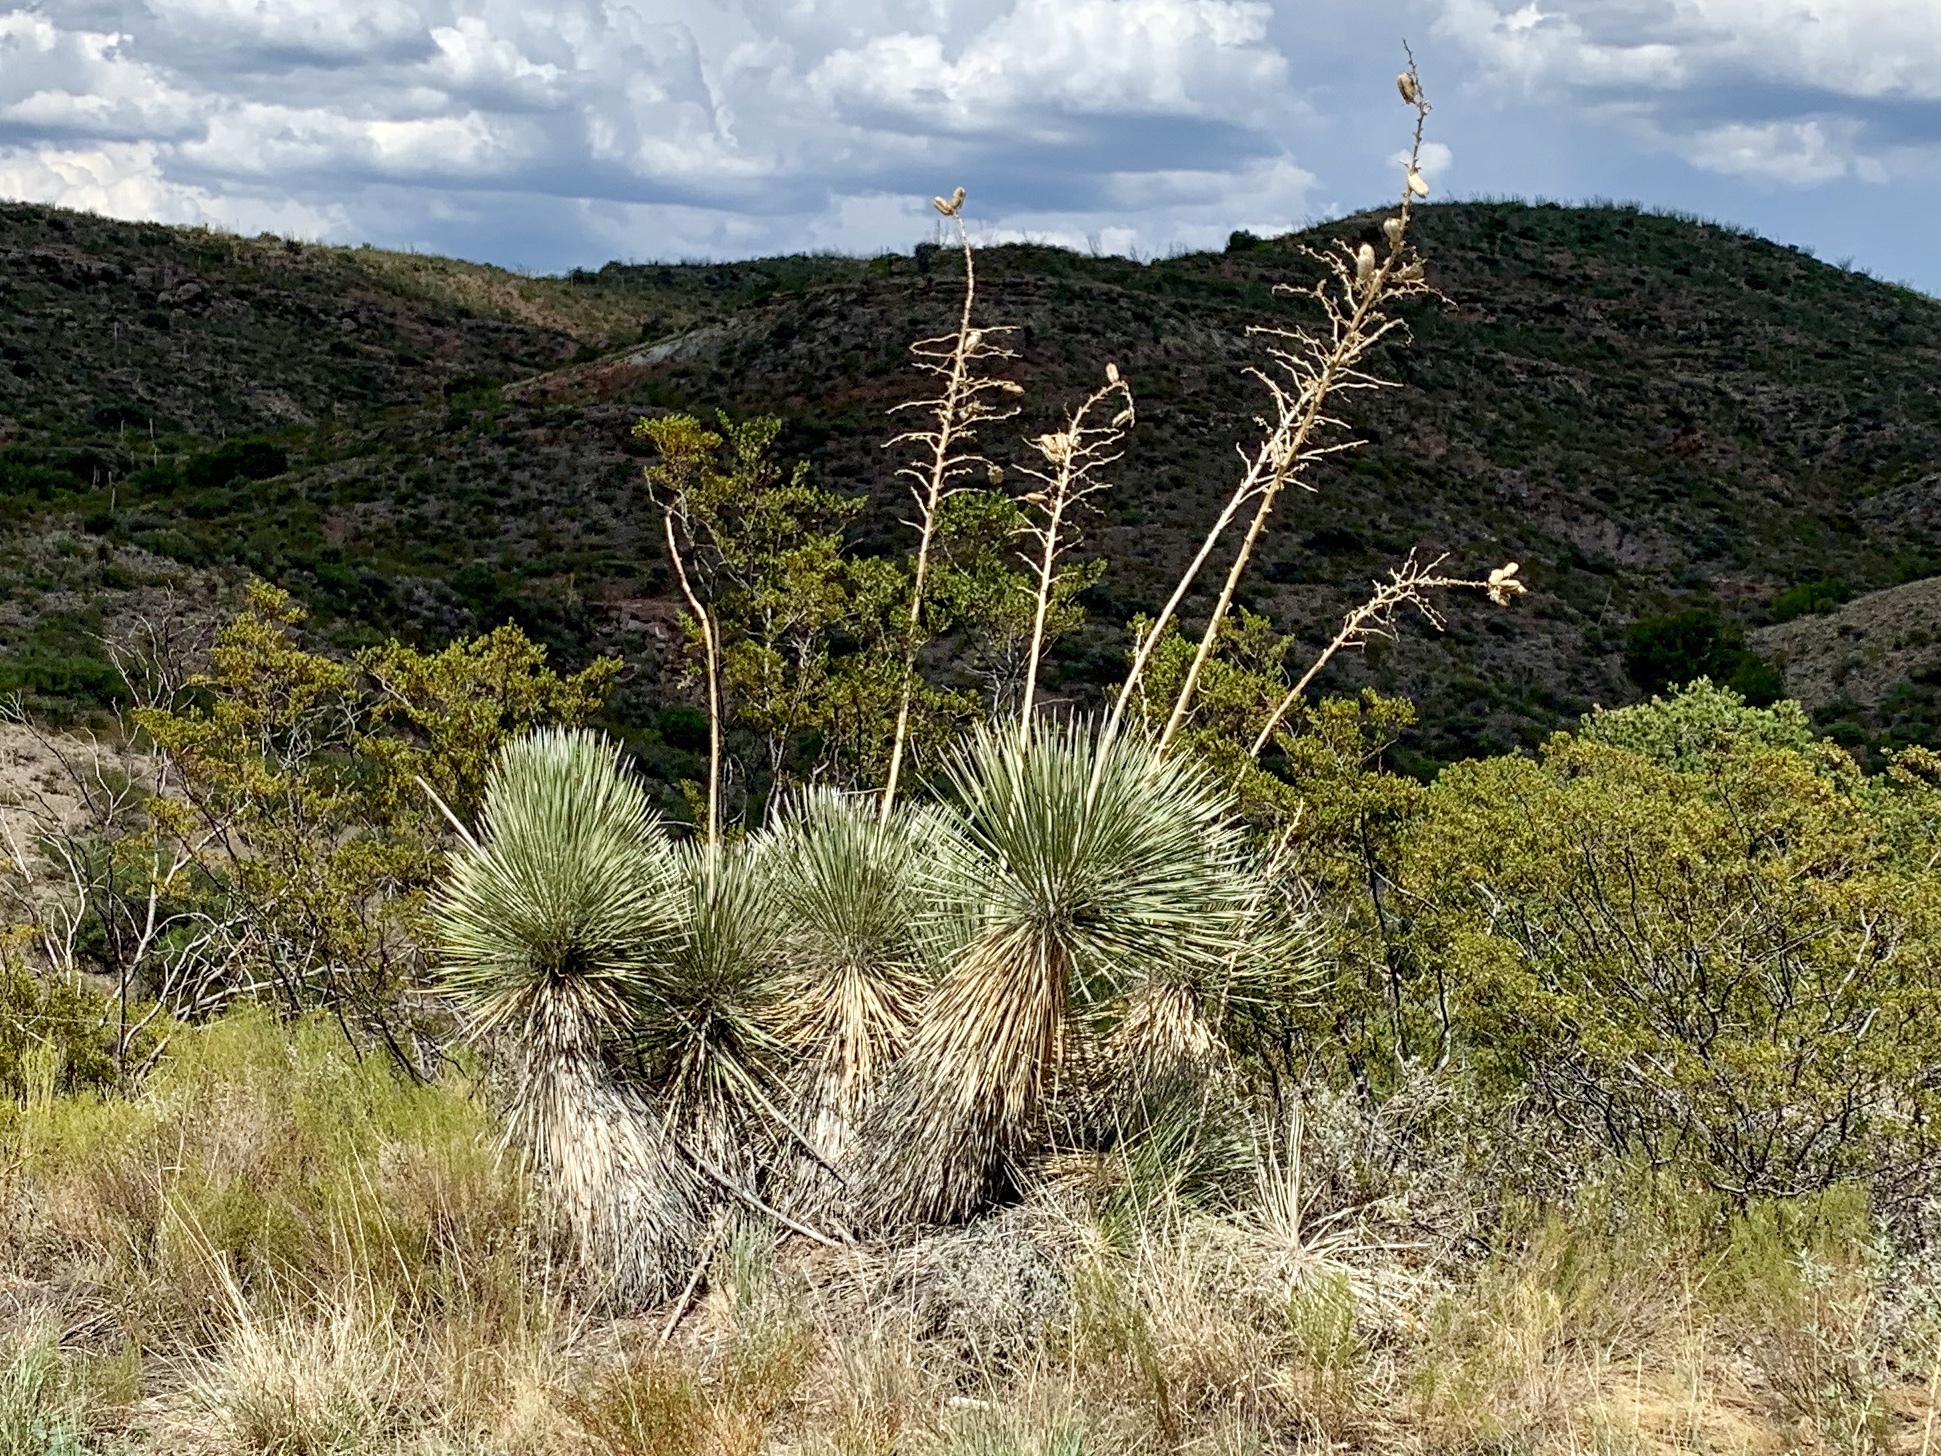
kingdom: Plantae
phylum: Tracheophyta
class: Liliopsida
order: Asparagales
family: Asparagaceae
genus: Yucca
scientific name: Yucca elata
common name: Palmella
